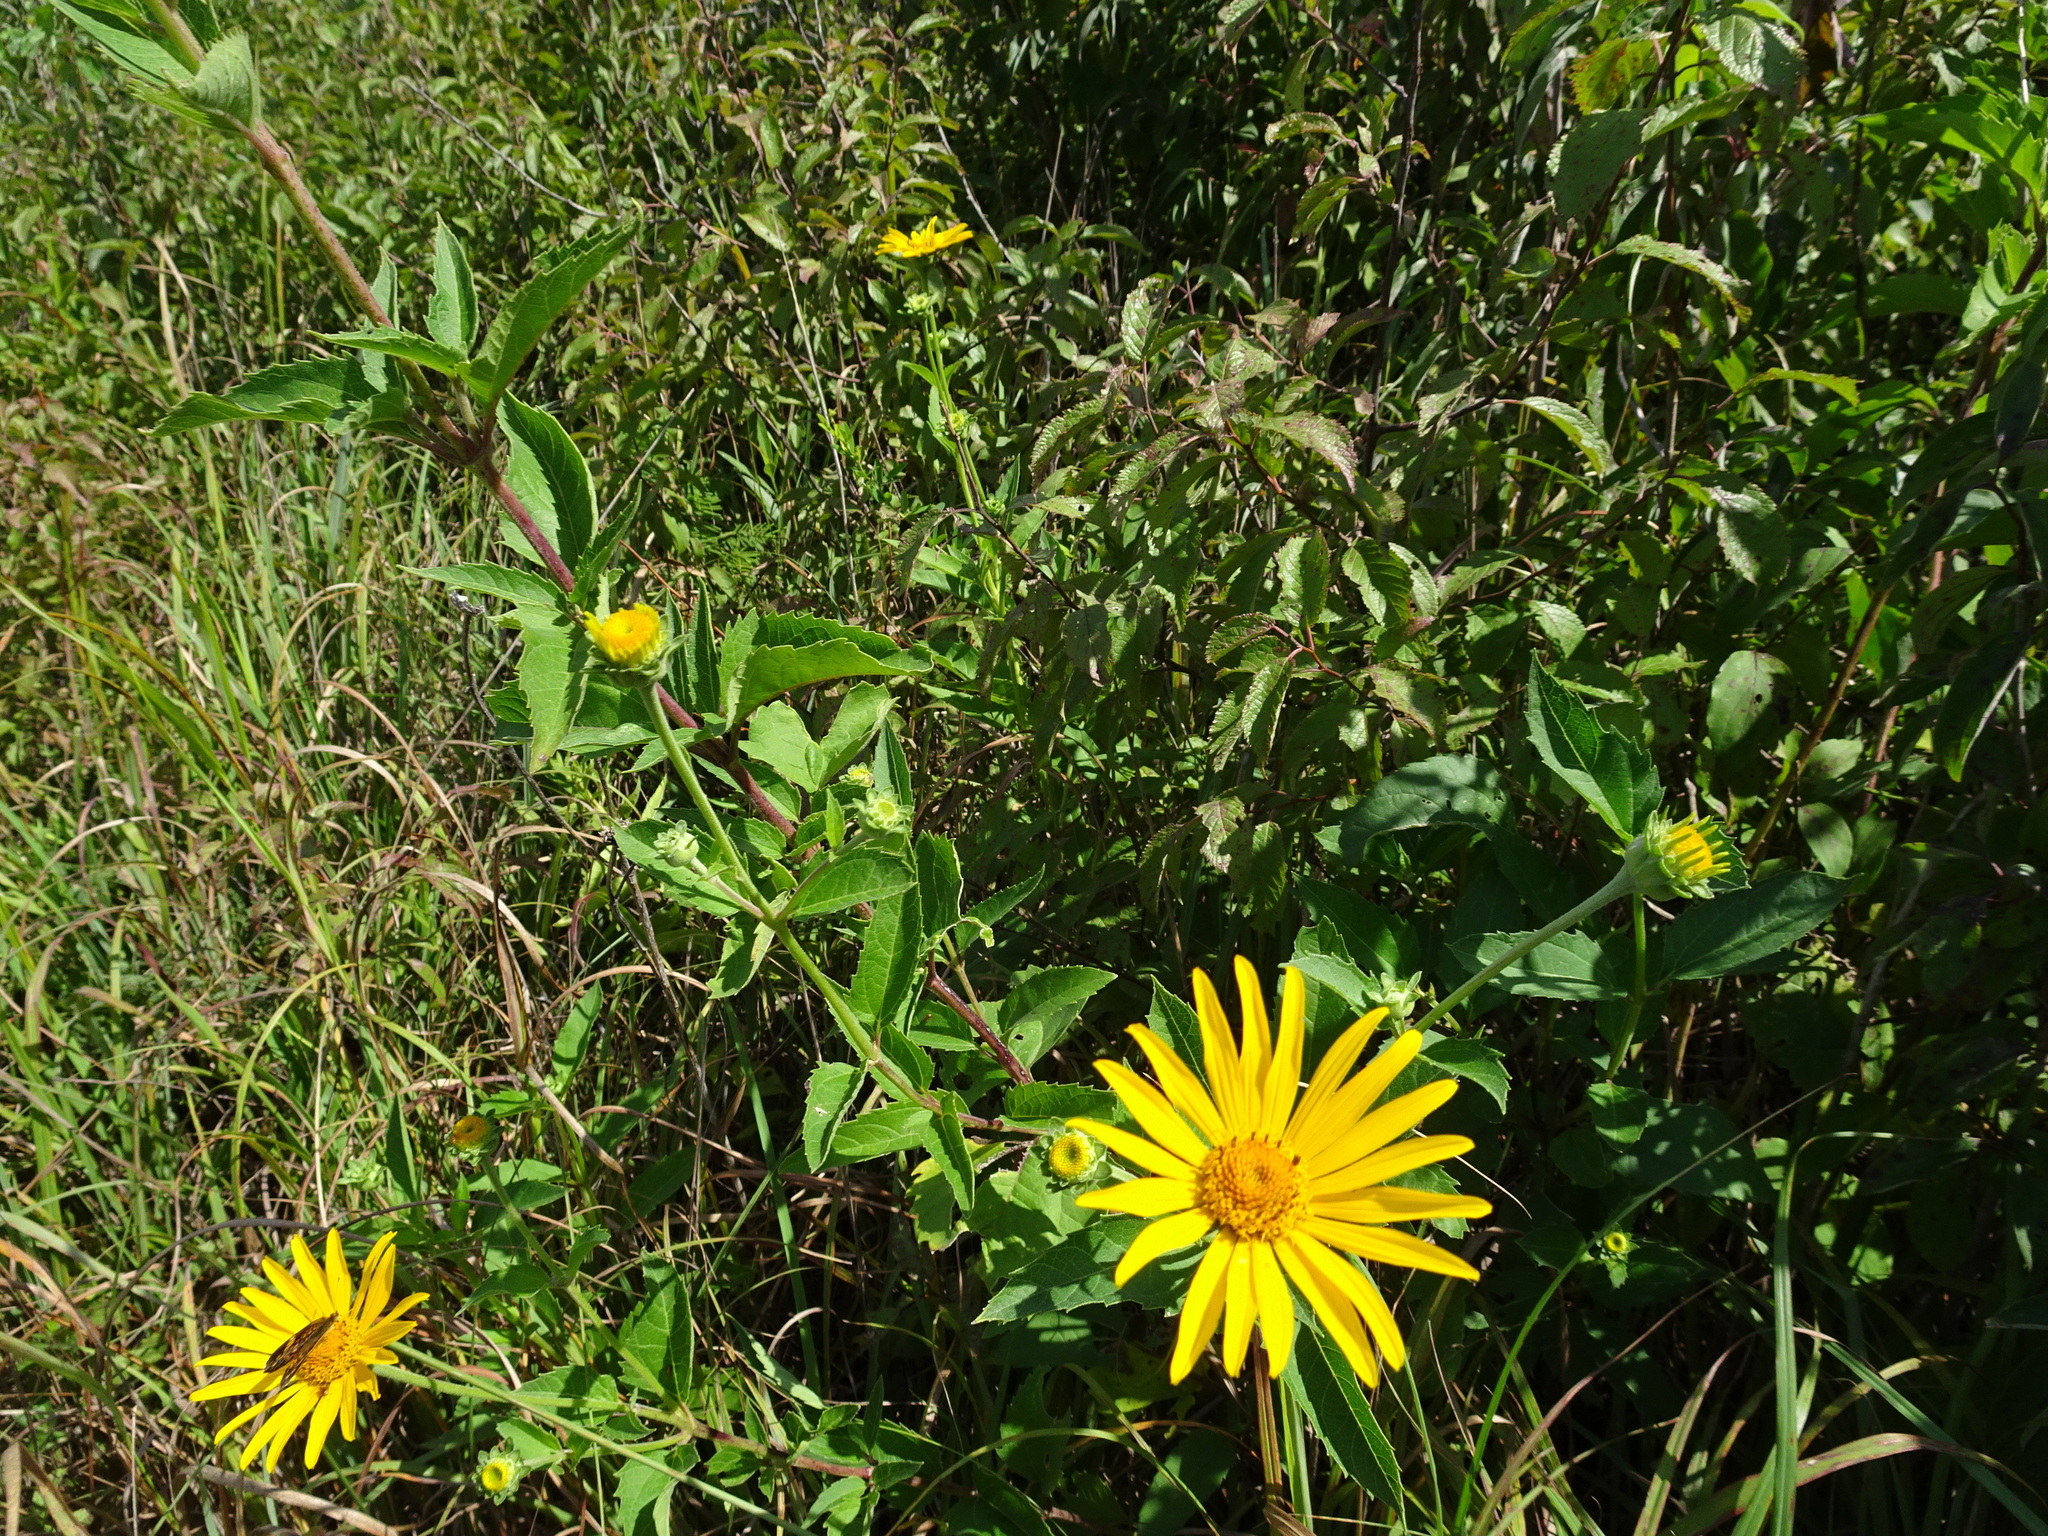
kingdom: Plantae
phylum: Tracheophyta
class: Magnoliopsida
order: Asterales
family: Asteraceae
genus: Heliopsis
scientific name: Heliopsis helianthoides
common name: False sunflower
